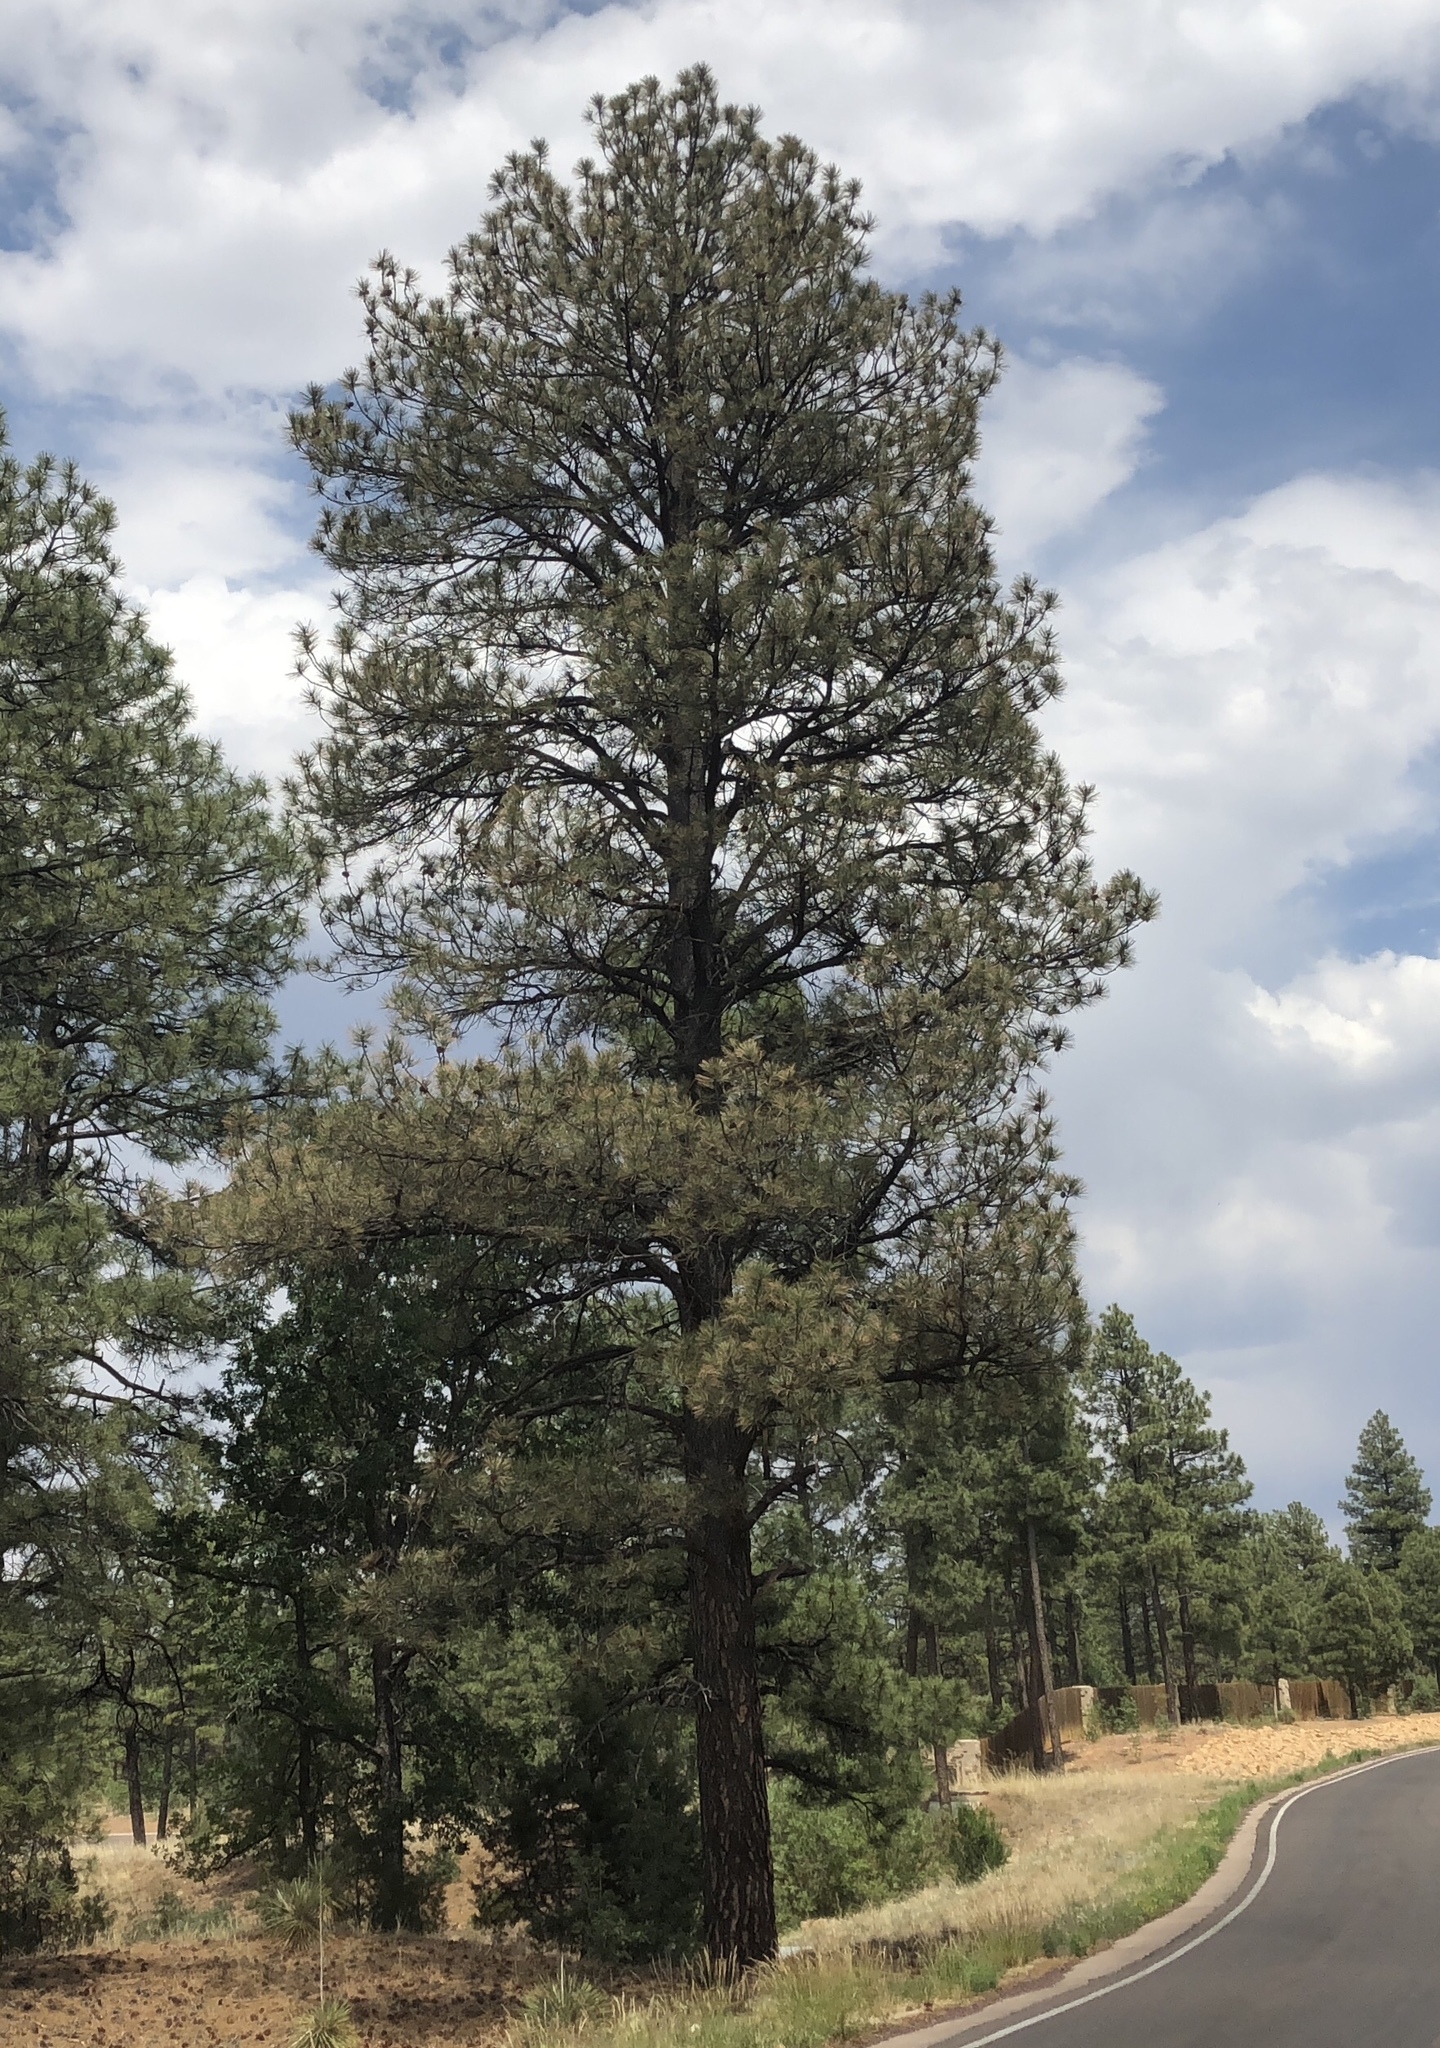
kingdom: Plantae
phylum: Tracheophyta
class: Pinopsida
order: Pinales
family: Pinaceae
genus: Pinus
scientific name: Pinus ponderosa
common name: Western yellow-pine
